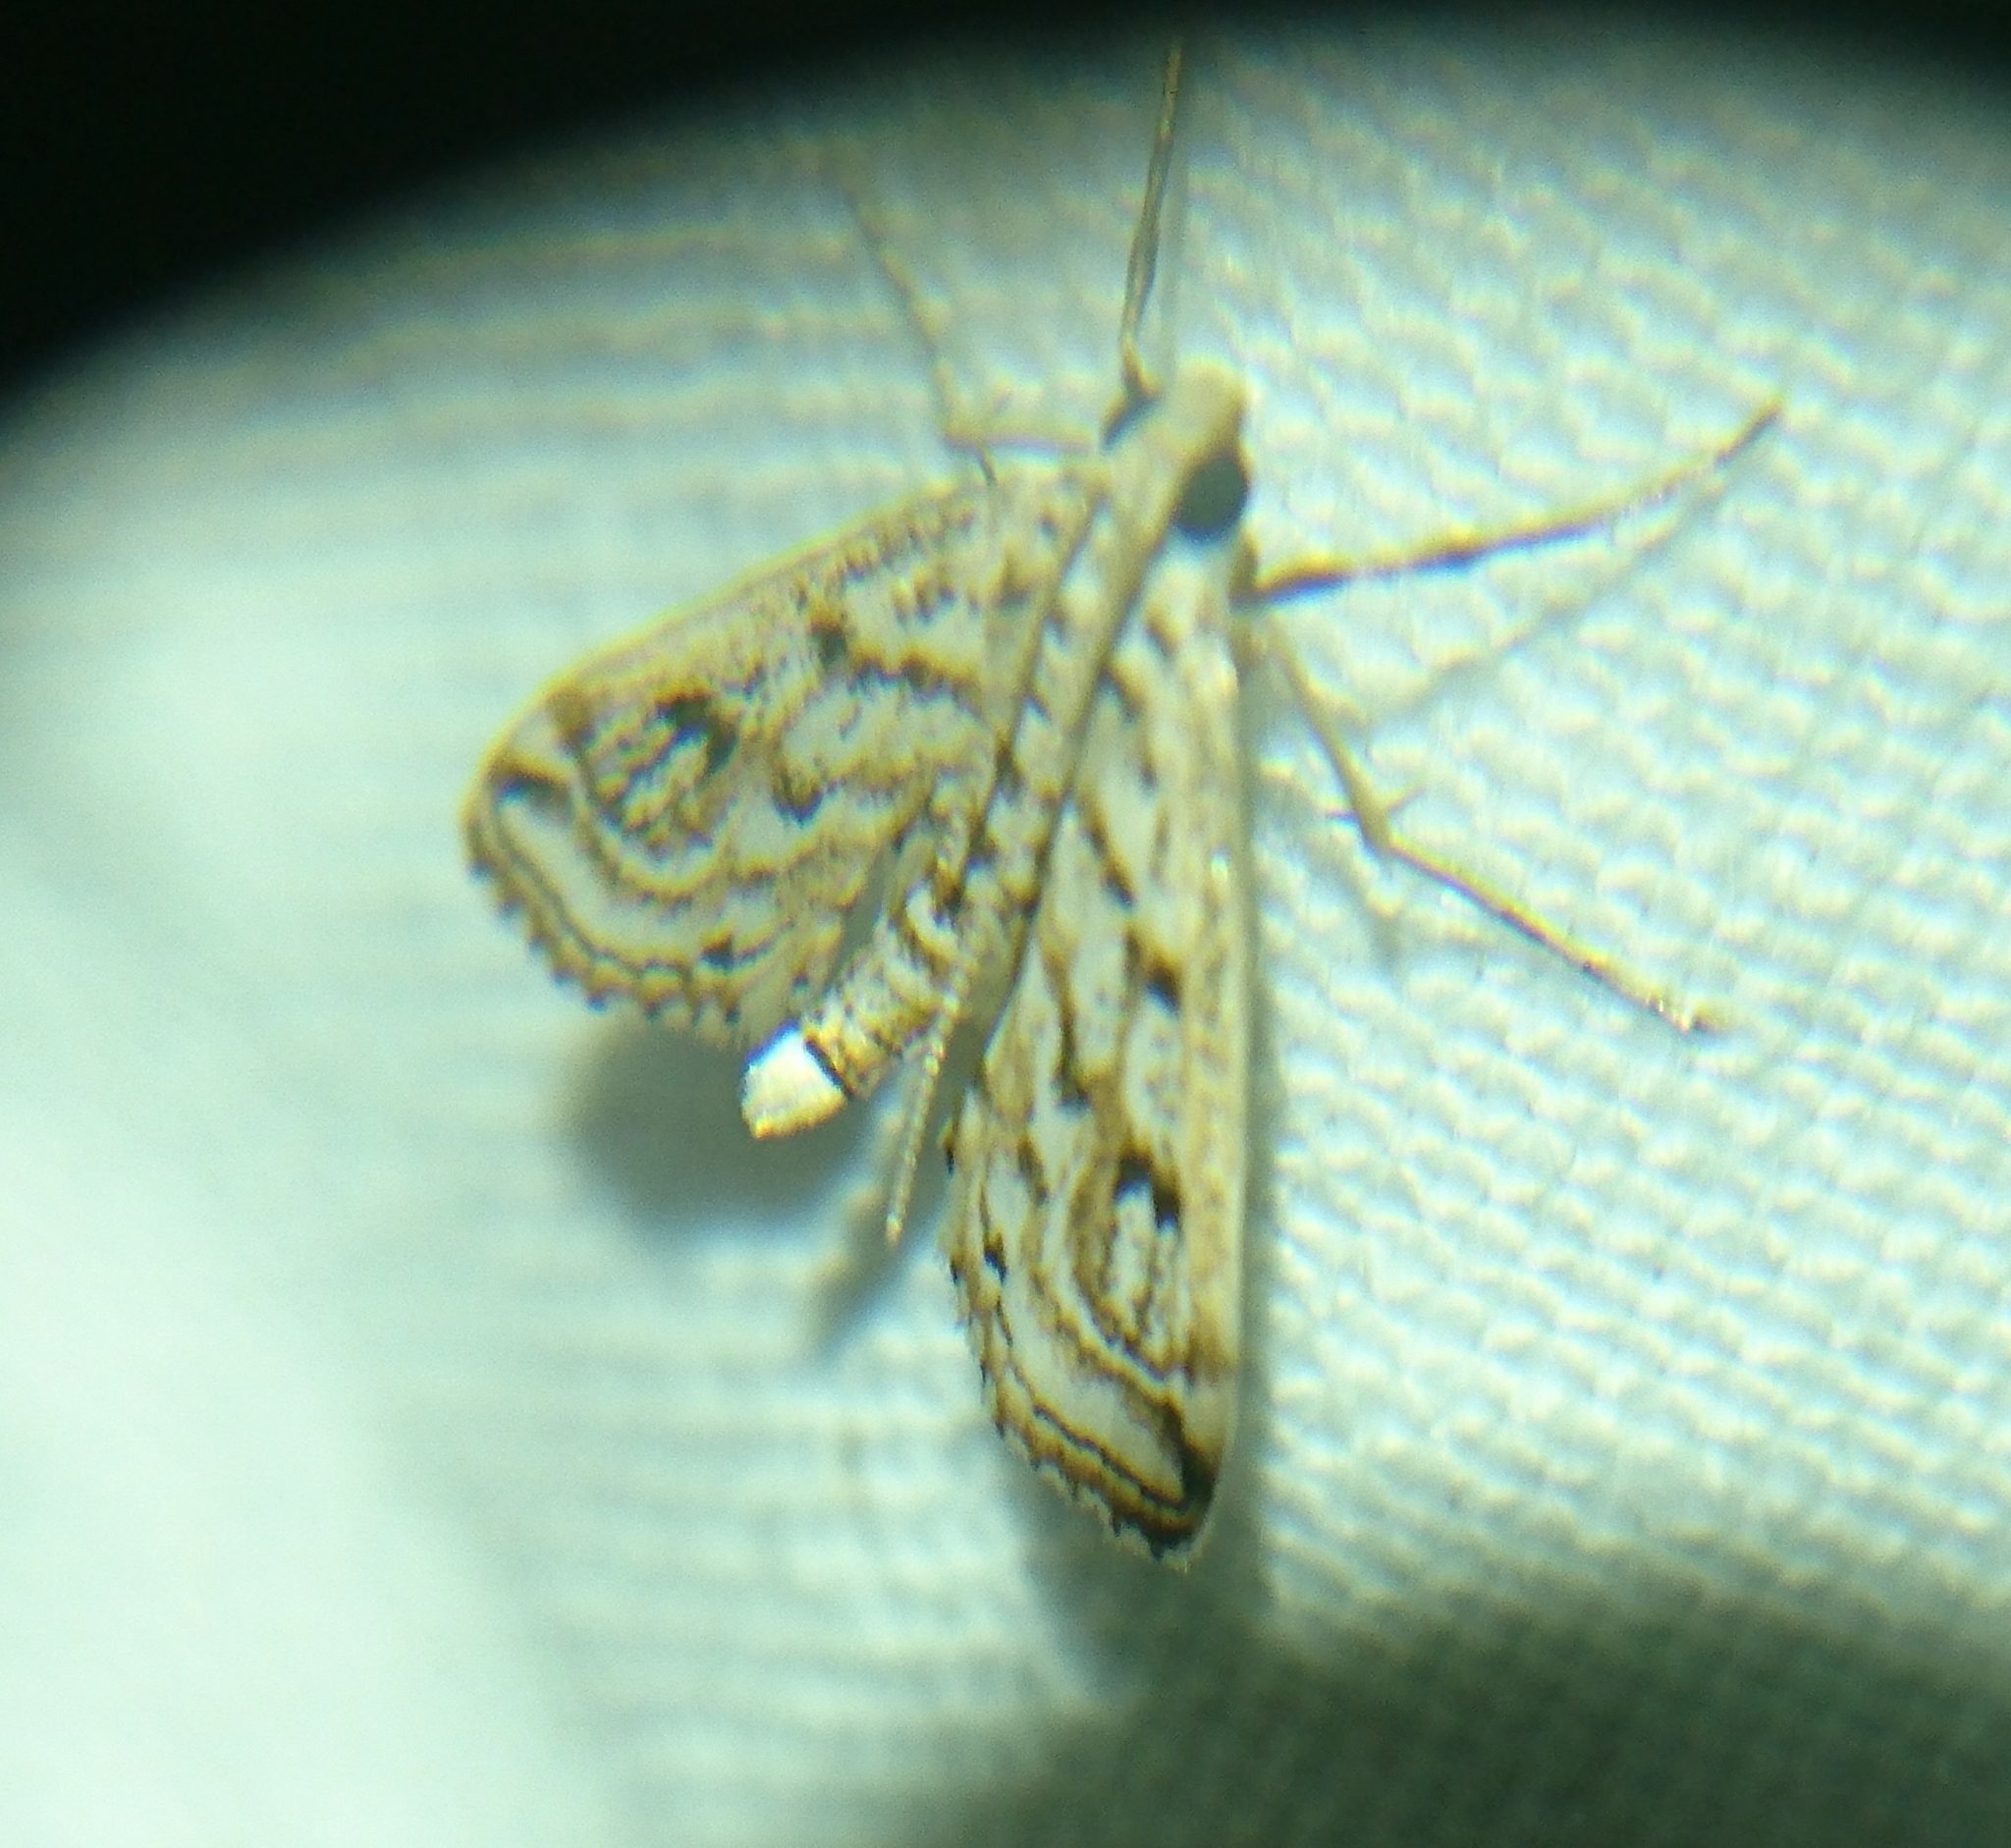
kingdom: Animalia
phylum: Arthropoda
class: Insecta
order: Lepidoptera
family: Crambidae
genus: Parapoynx
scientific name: Parapoynx allionealis
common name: Bladderwort casemaker
